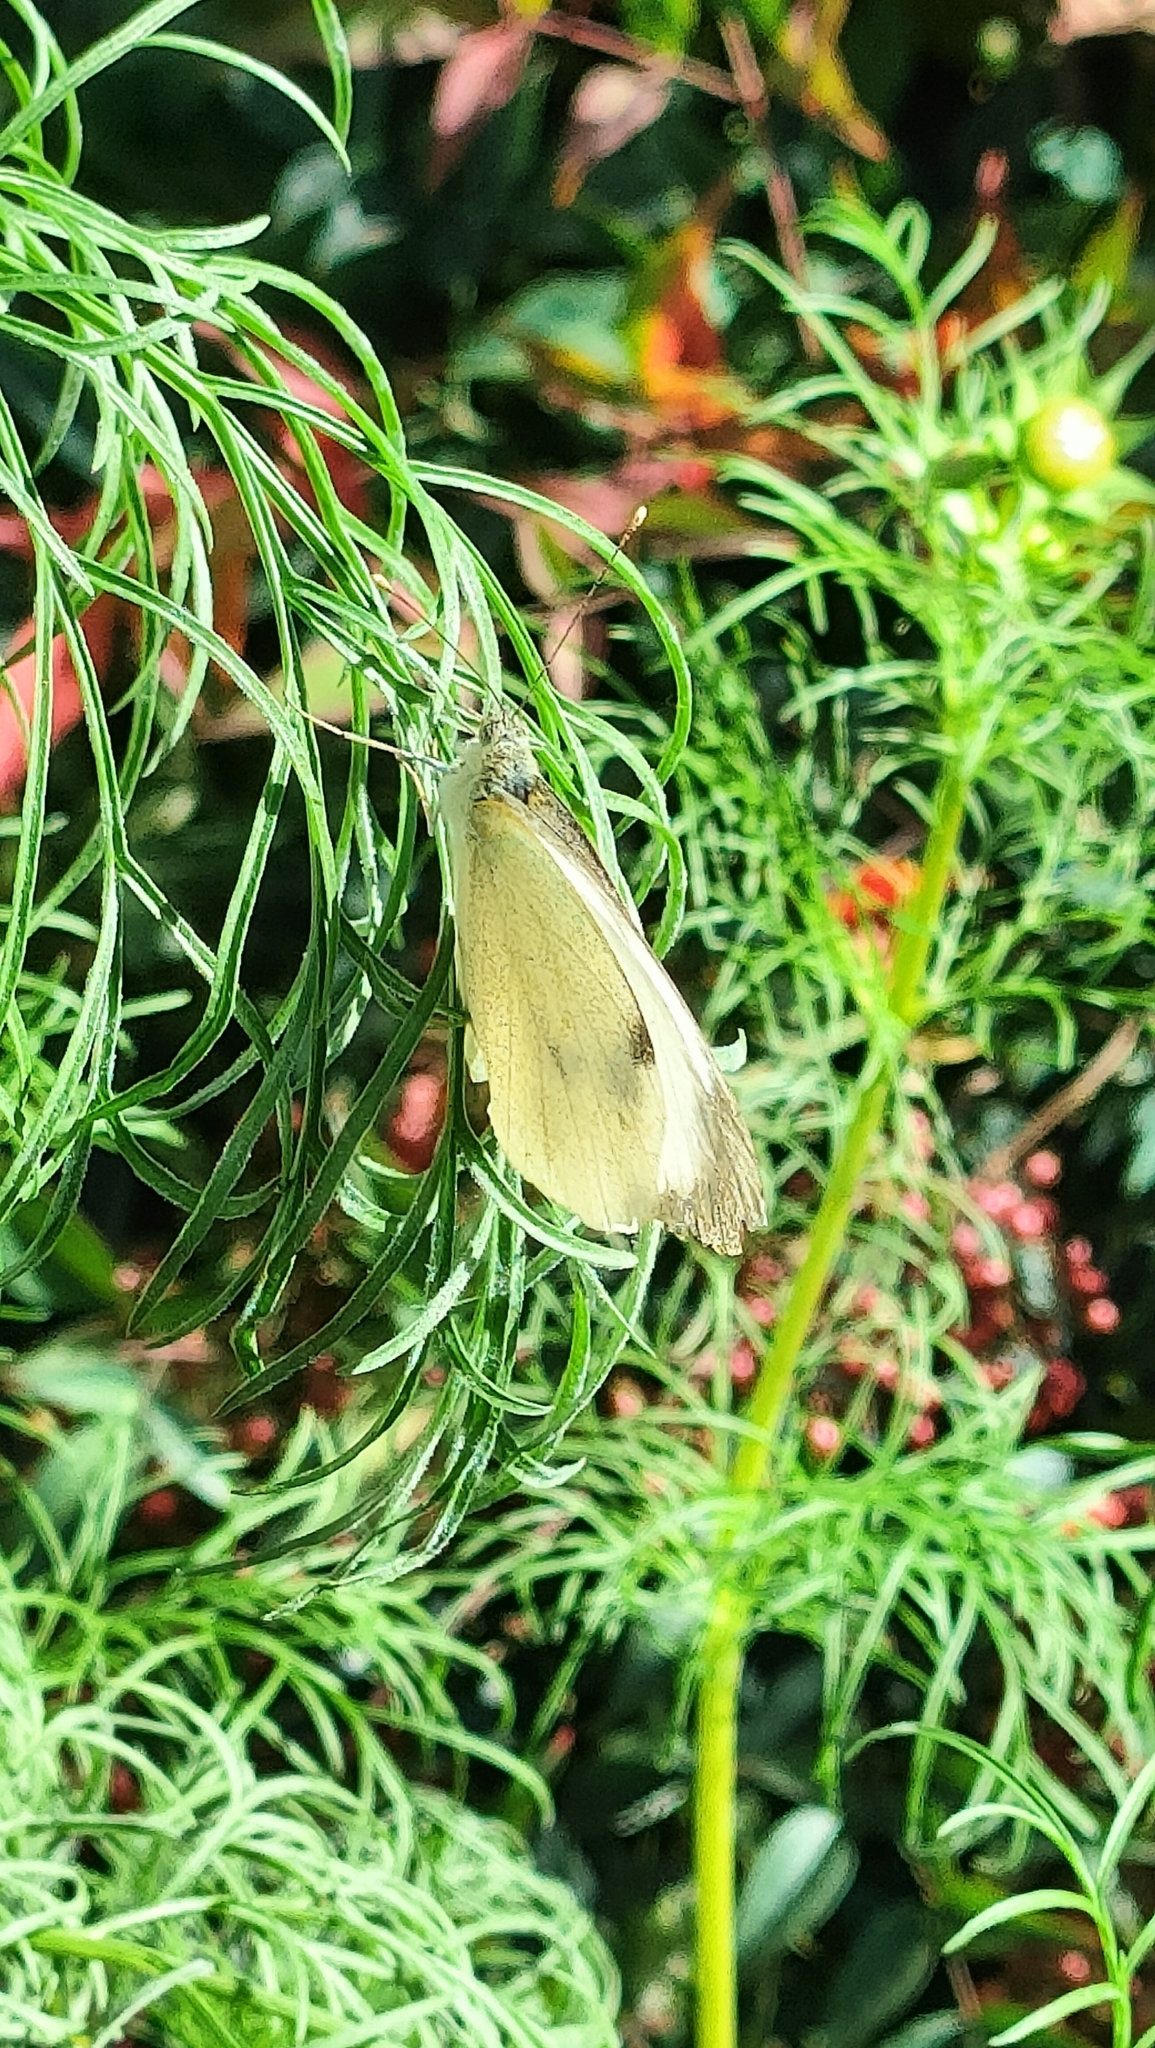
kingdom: Animalia
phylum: Arthropoda
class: Insecta
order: Lepidoptera
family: Pieridae
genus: Pieris
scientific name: Pieris brassicae
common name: Large white
